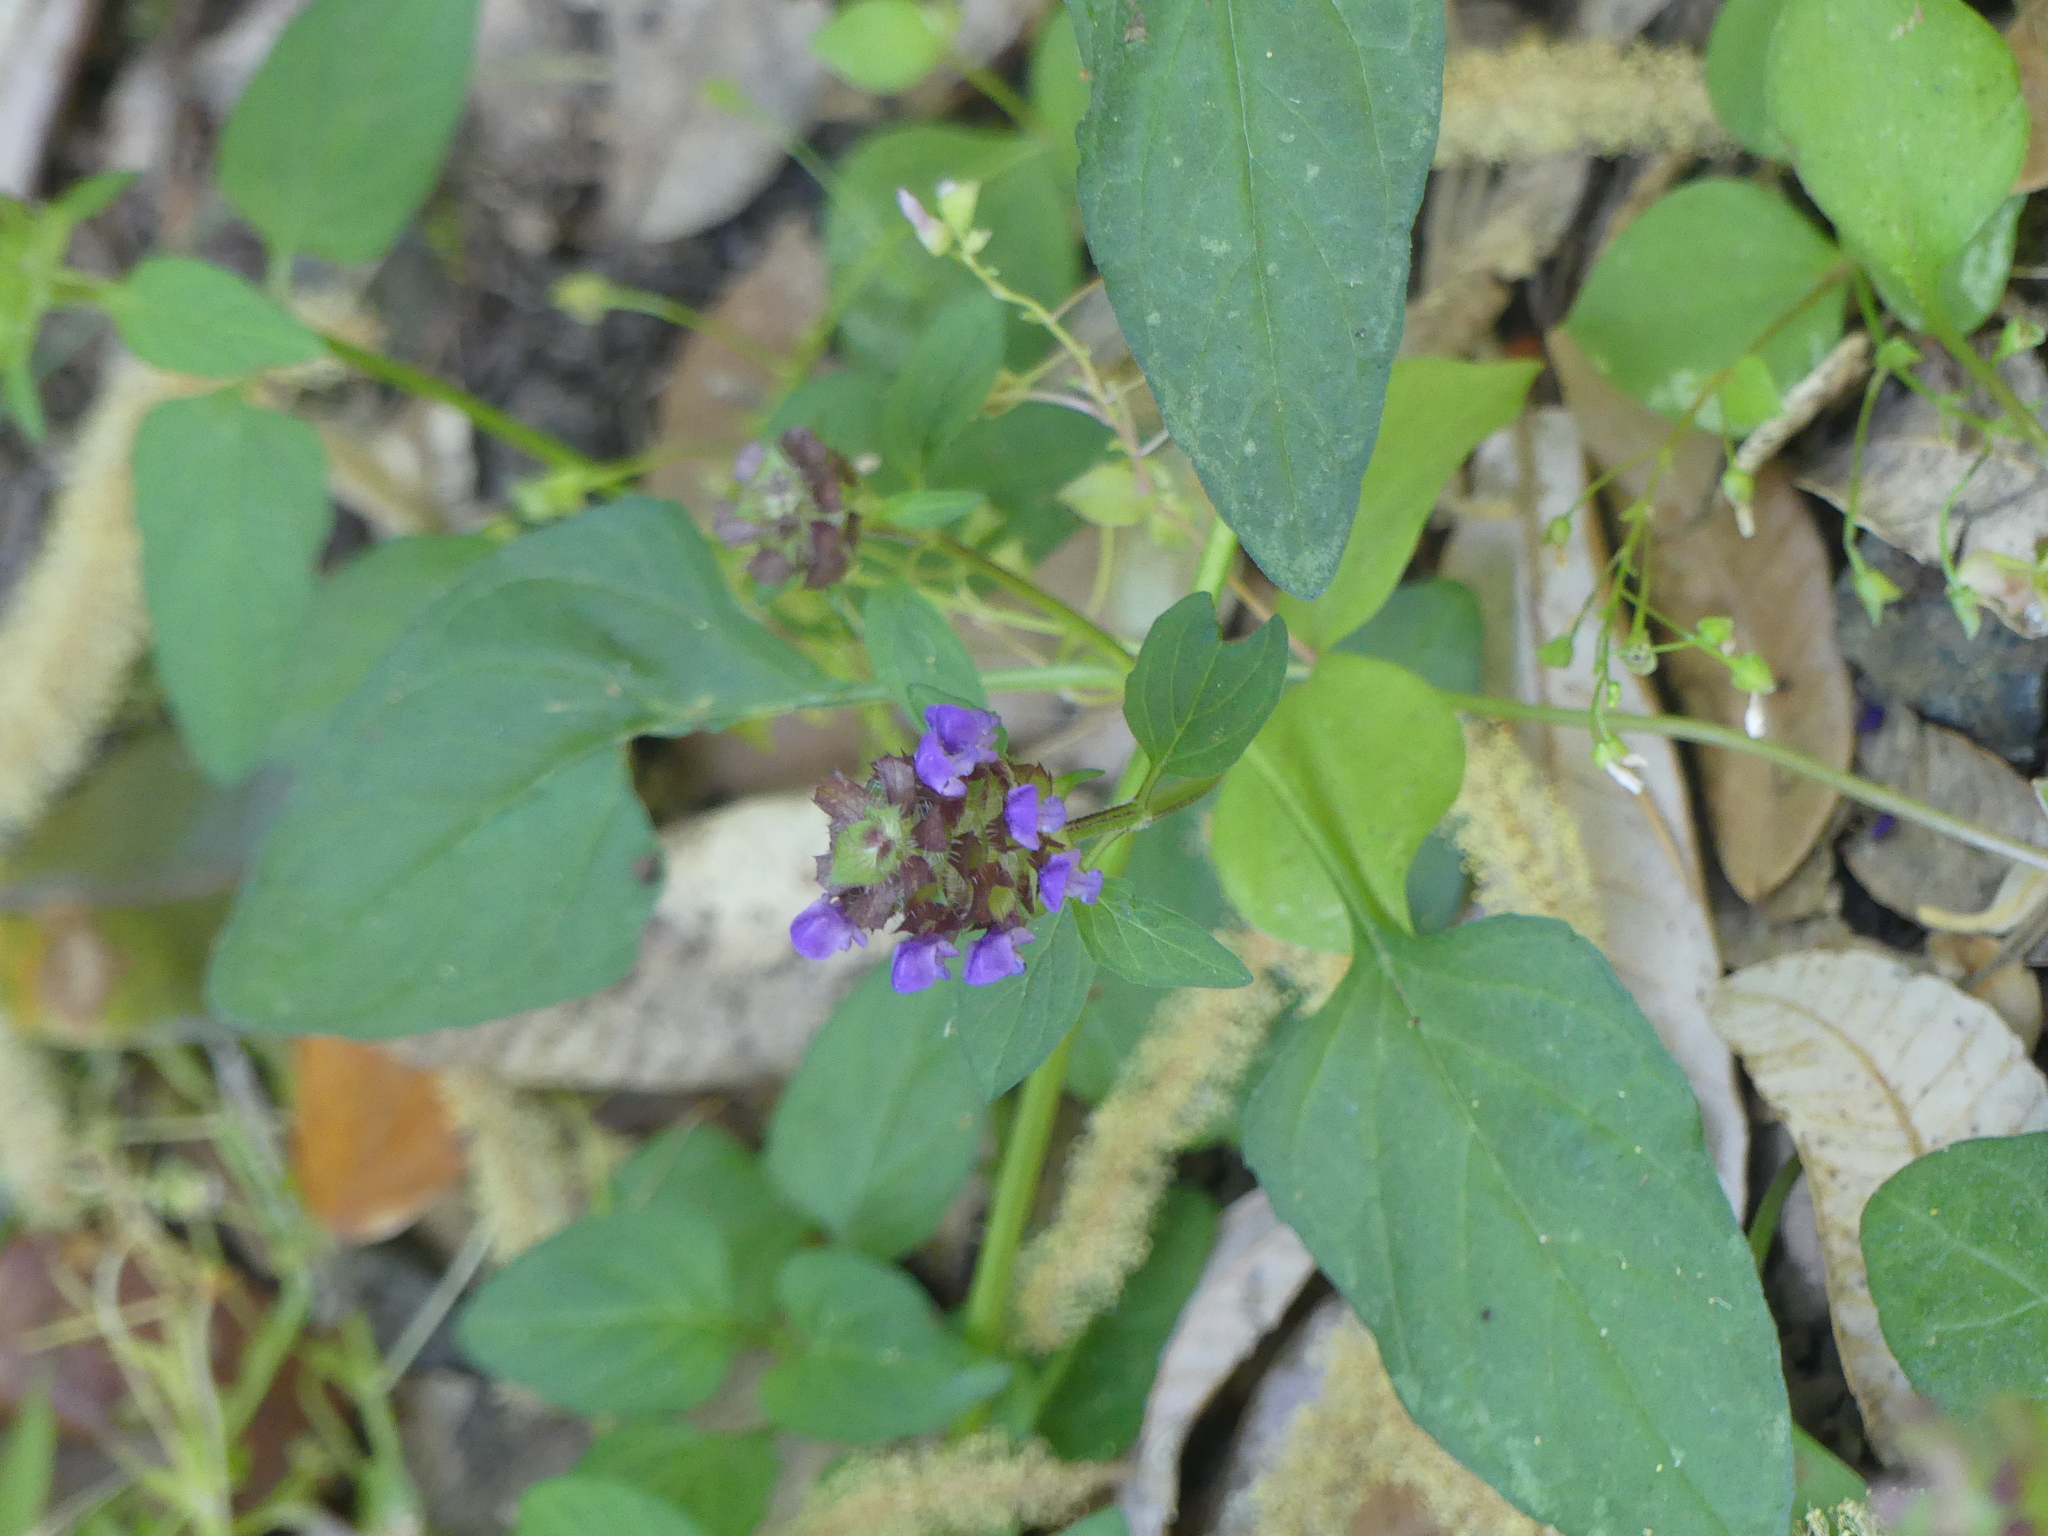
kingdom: Plantae
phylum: Tracheophyta
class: Magnoliopsida
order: Lamiales
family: Lamiaceae
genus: Prunella
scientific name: Prunella vulgaris
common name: Heal-all
